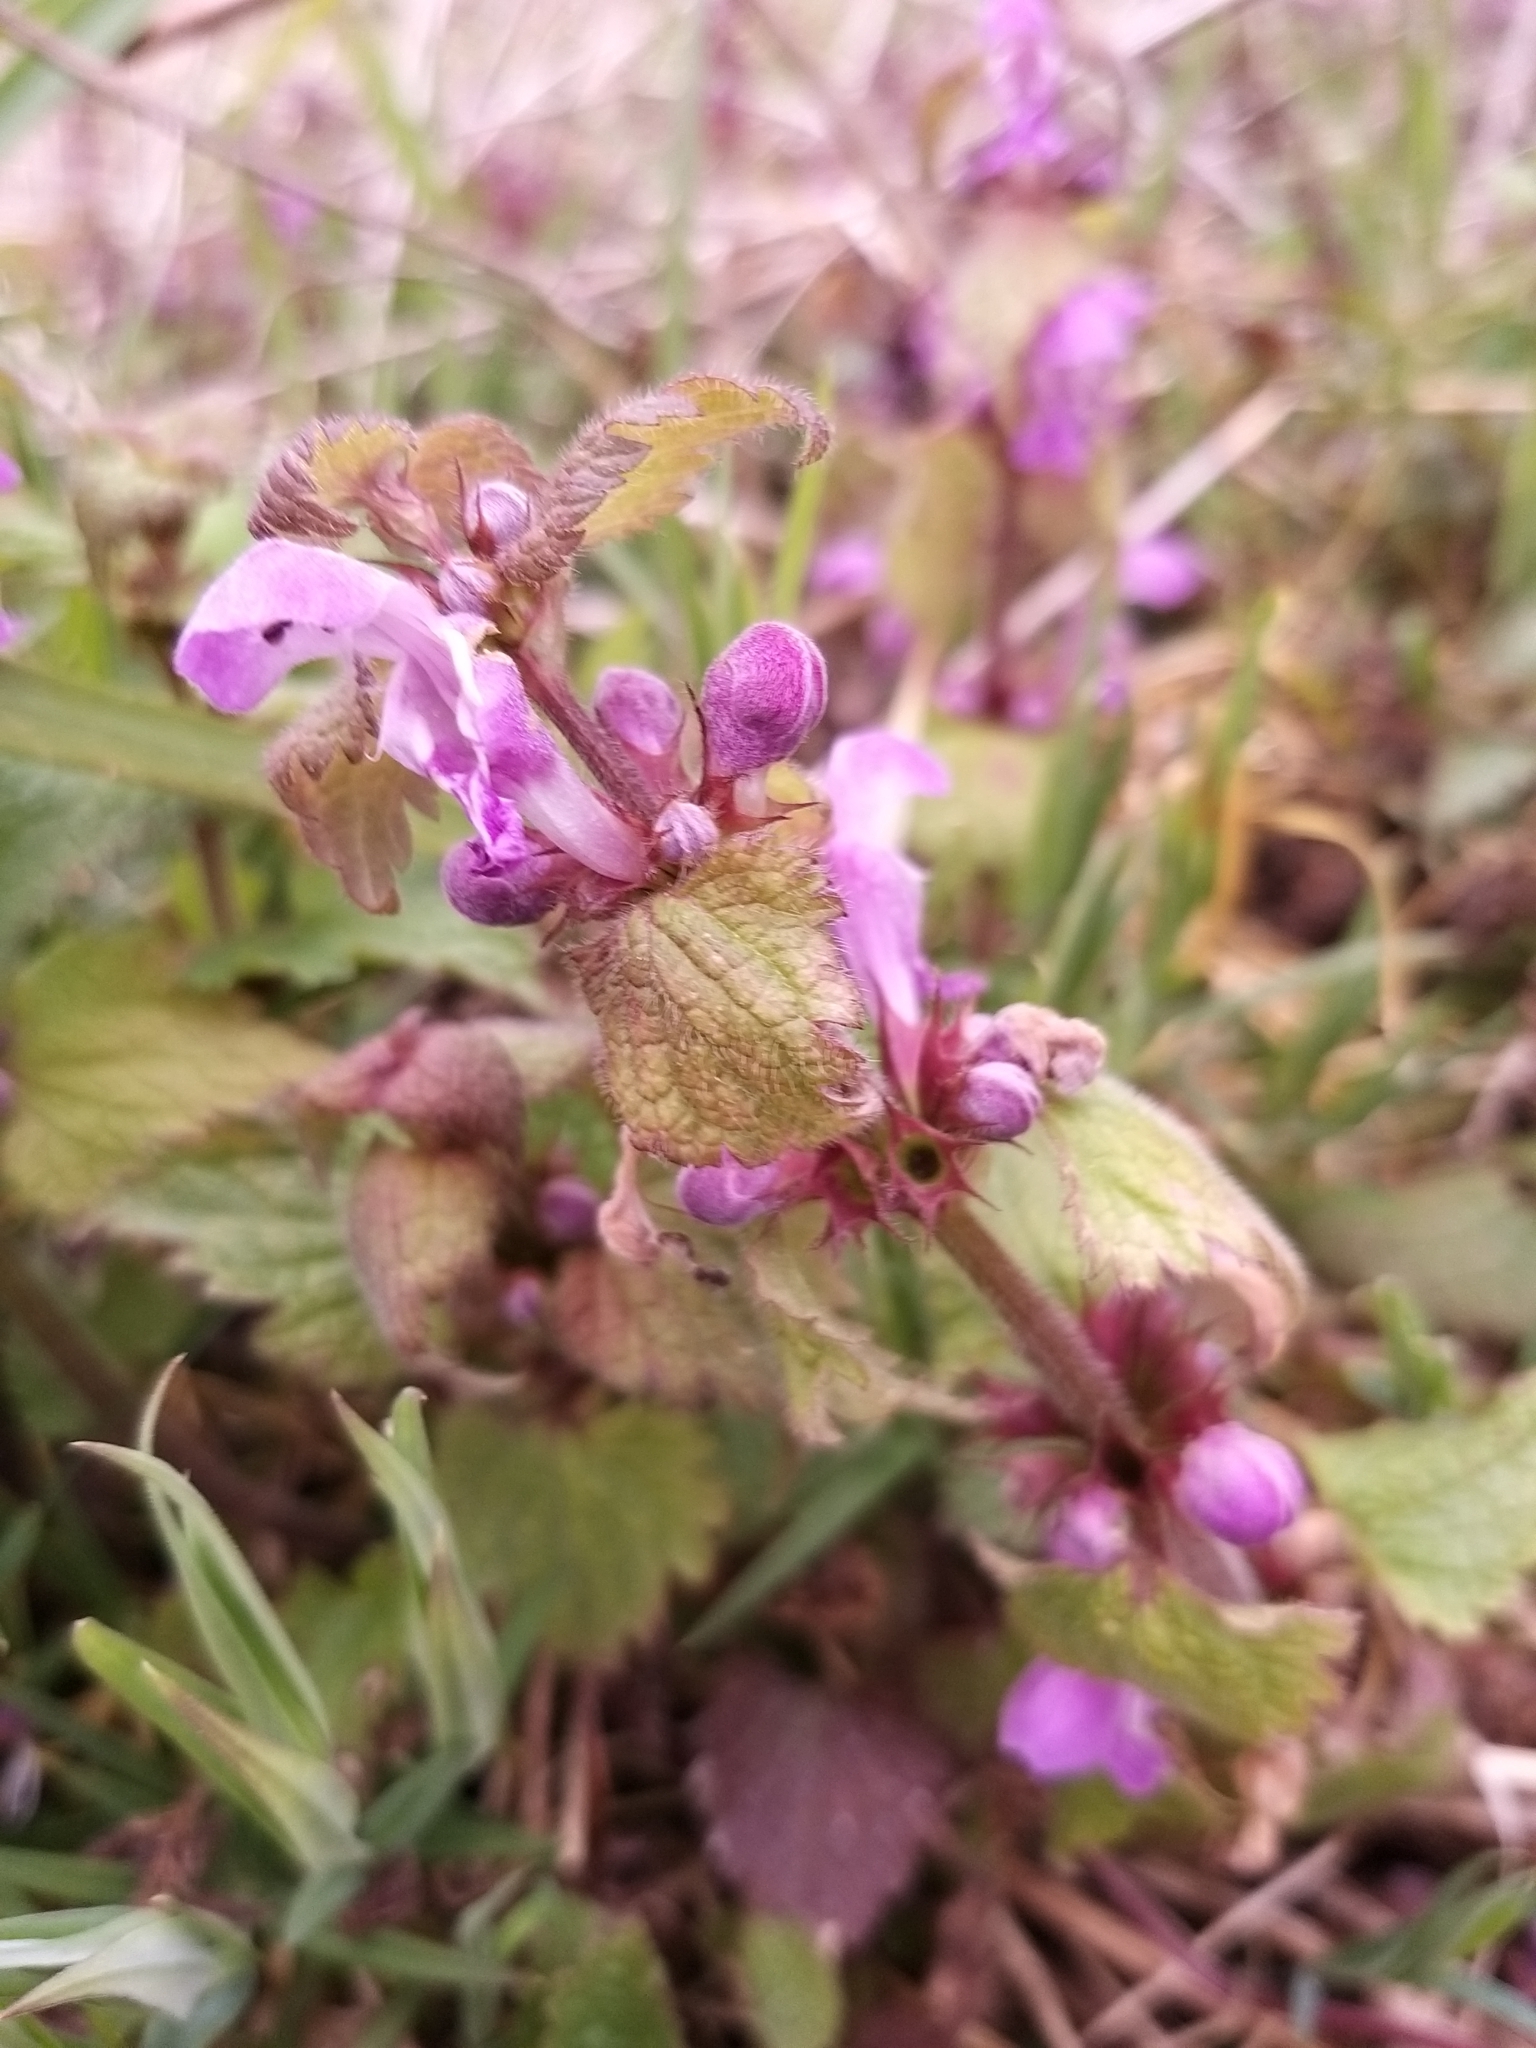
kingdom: Plantae
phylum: Tracheophyta
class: Magnoliopsida
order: Lamiales
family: Lamiaceae
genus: Lamium
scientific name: Lamium maculatum
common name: Spotted dead-nettle
